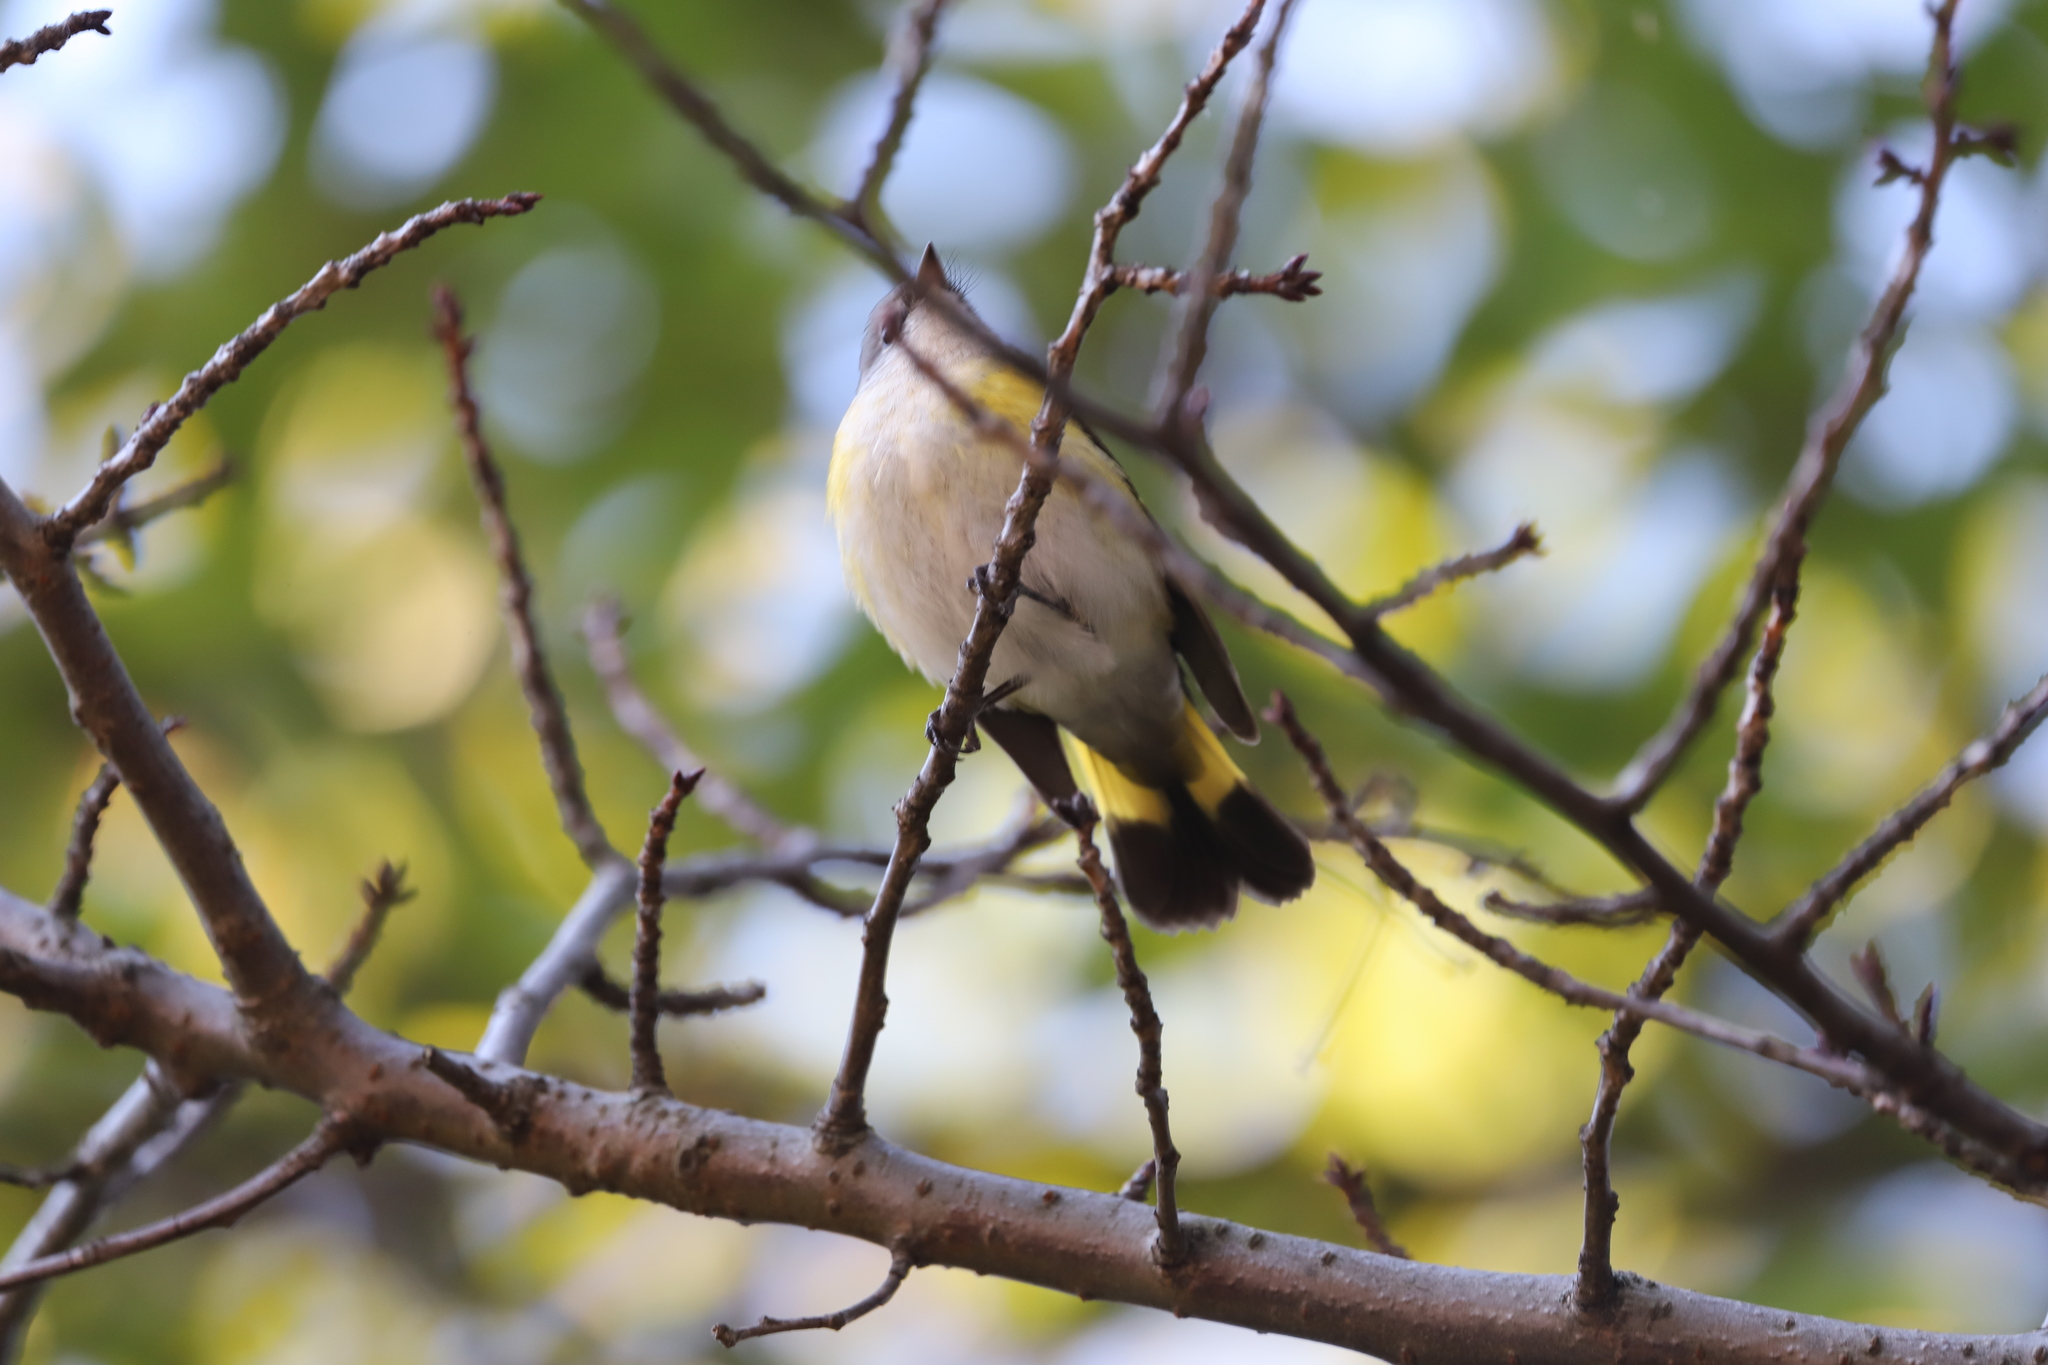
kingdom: Animalia
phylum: Chordata
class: Aves
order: Passeriformes
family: Parulidae
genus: Setophaga
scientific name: Setophaga ruticilla
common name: American redstart
